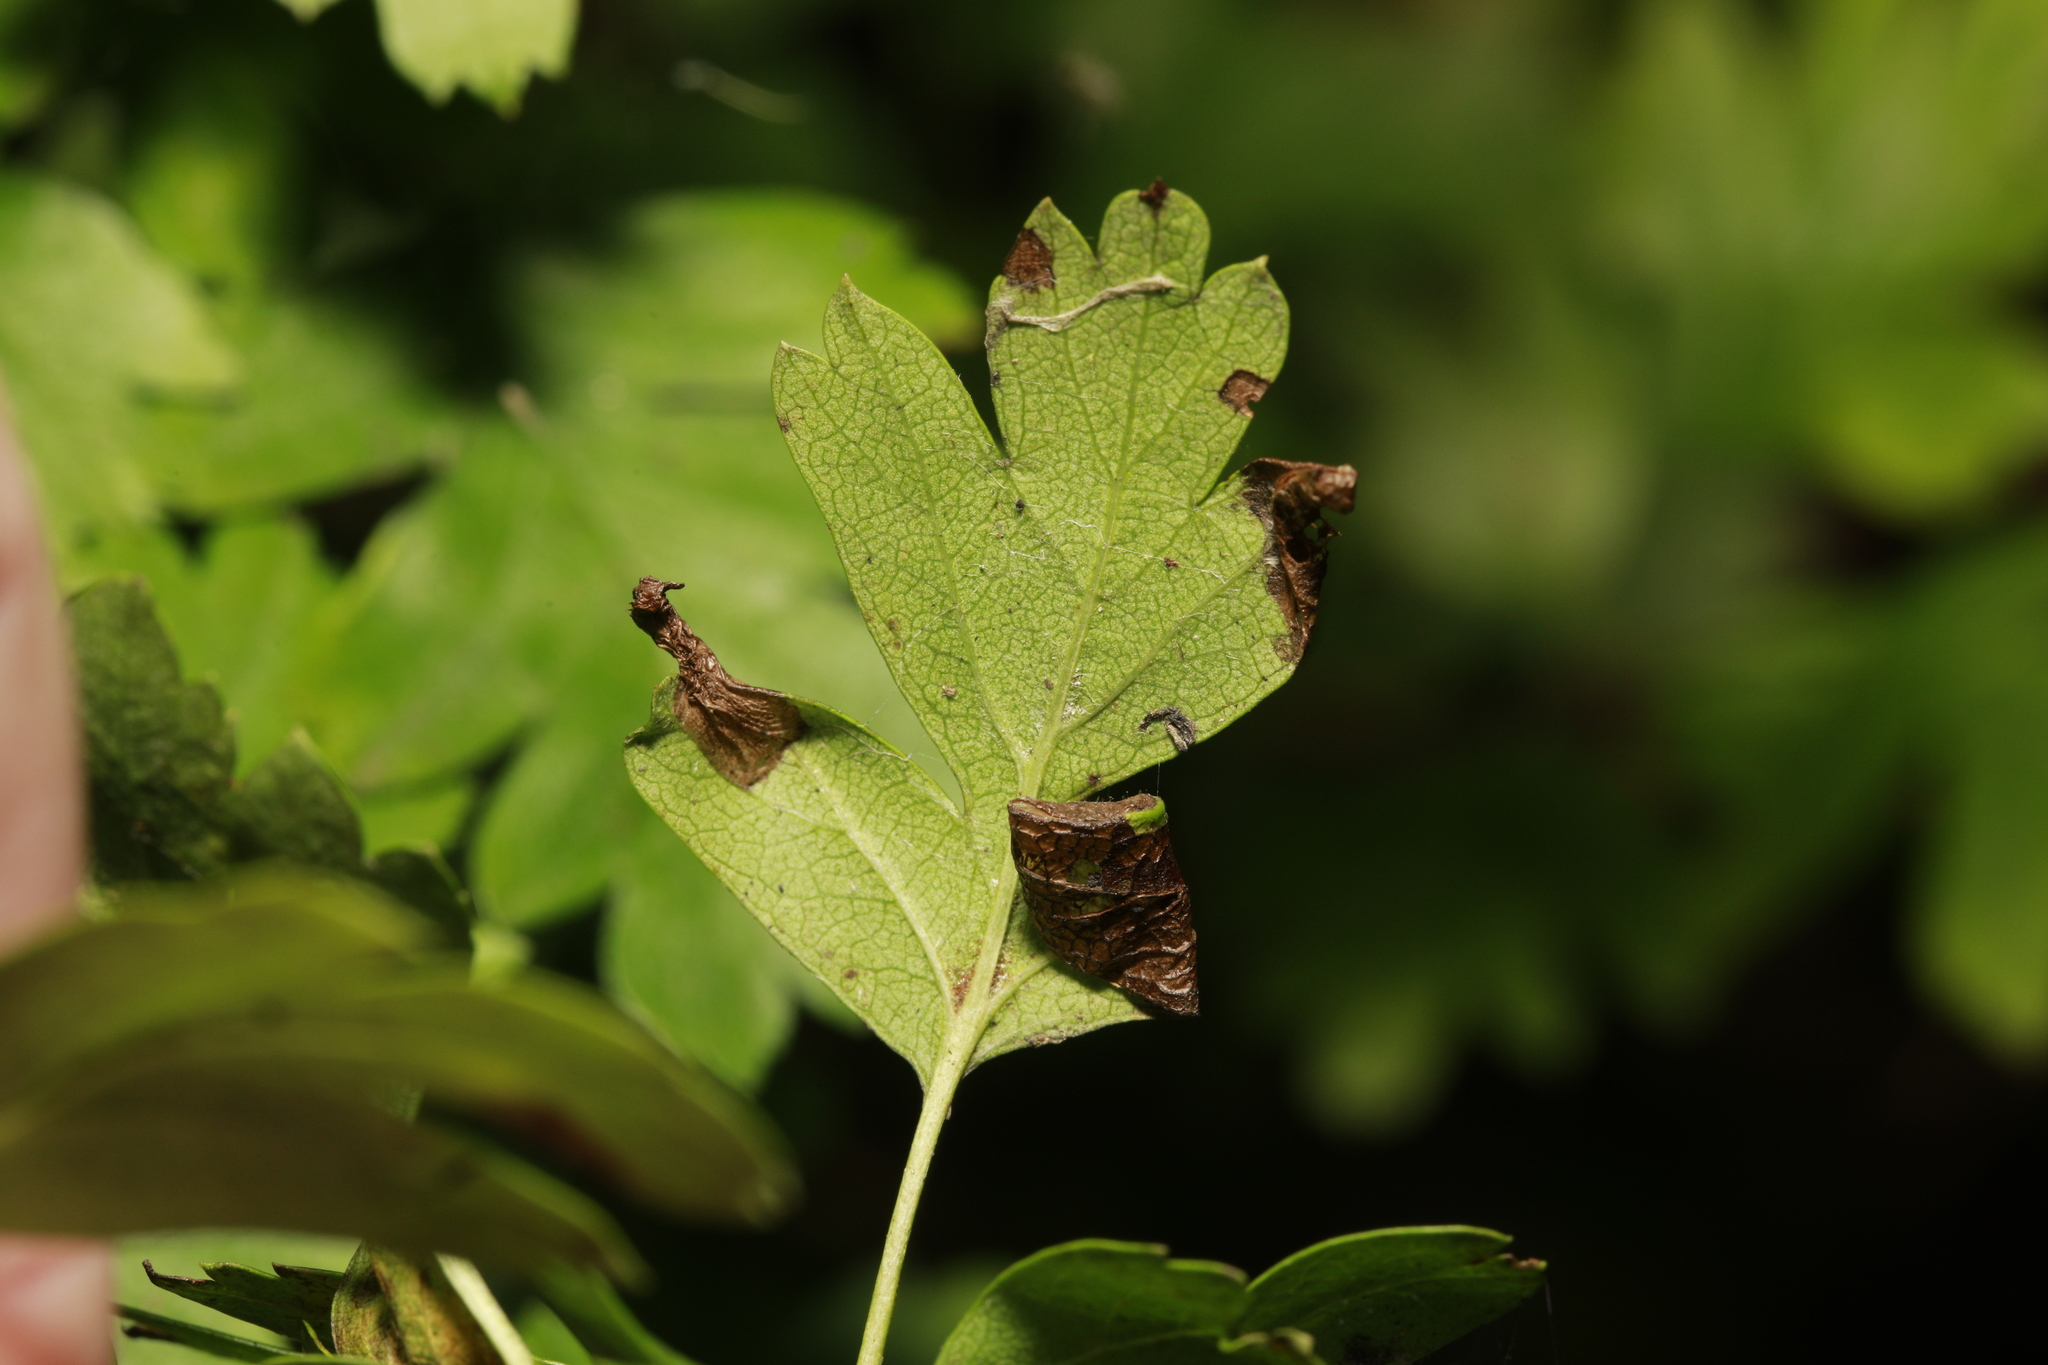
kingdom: Animalia
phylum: Arthropoda
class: Insecta
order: Lepidoptera
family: Gracillariidae
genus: Phyllonorycter
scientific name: Phyllonorycter oxyacanthae
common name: Common thorn midget
